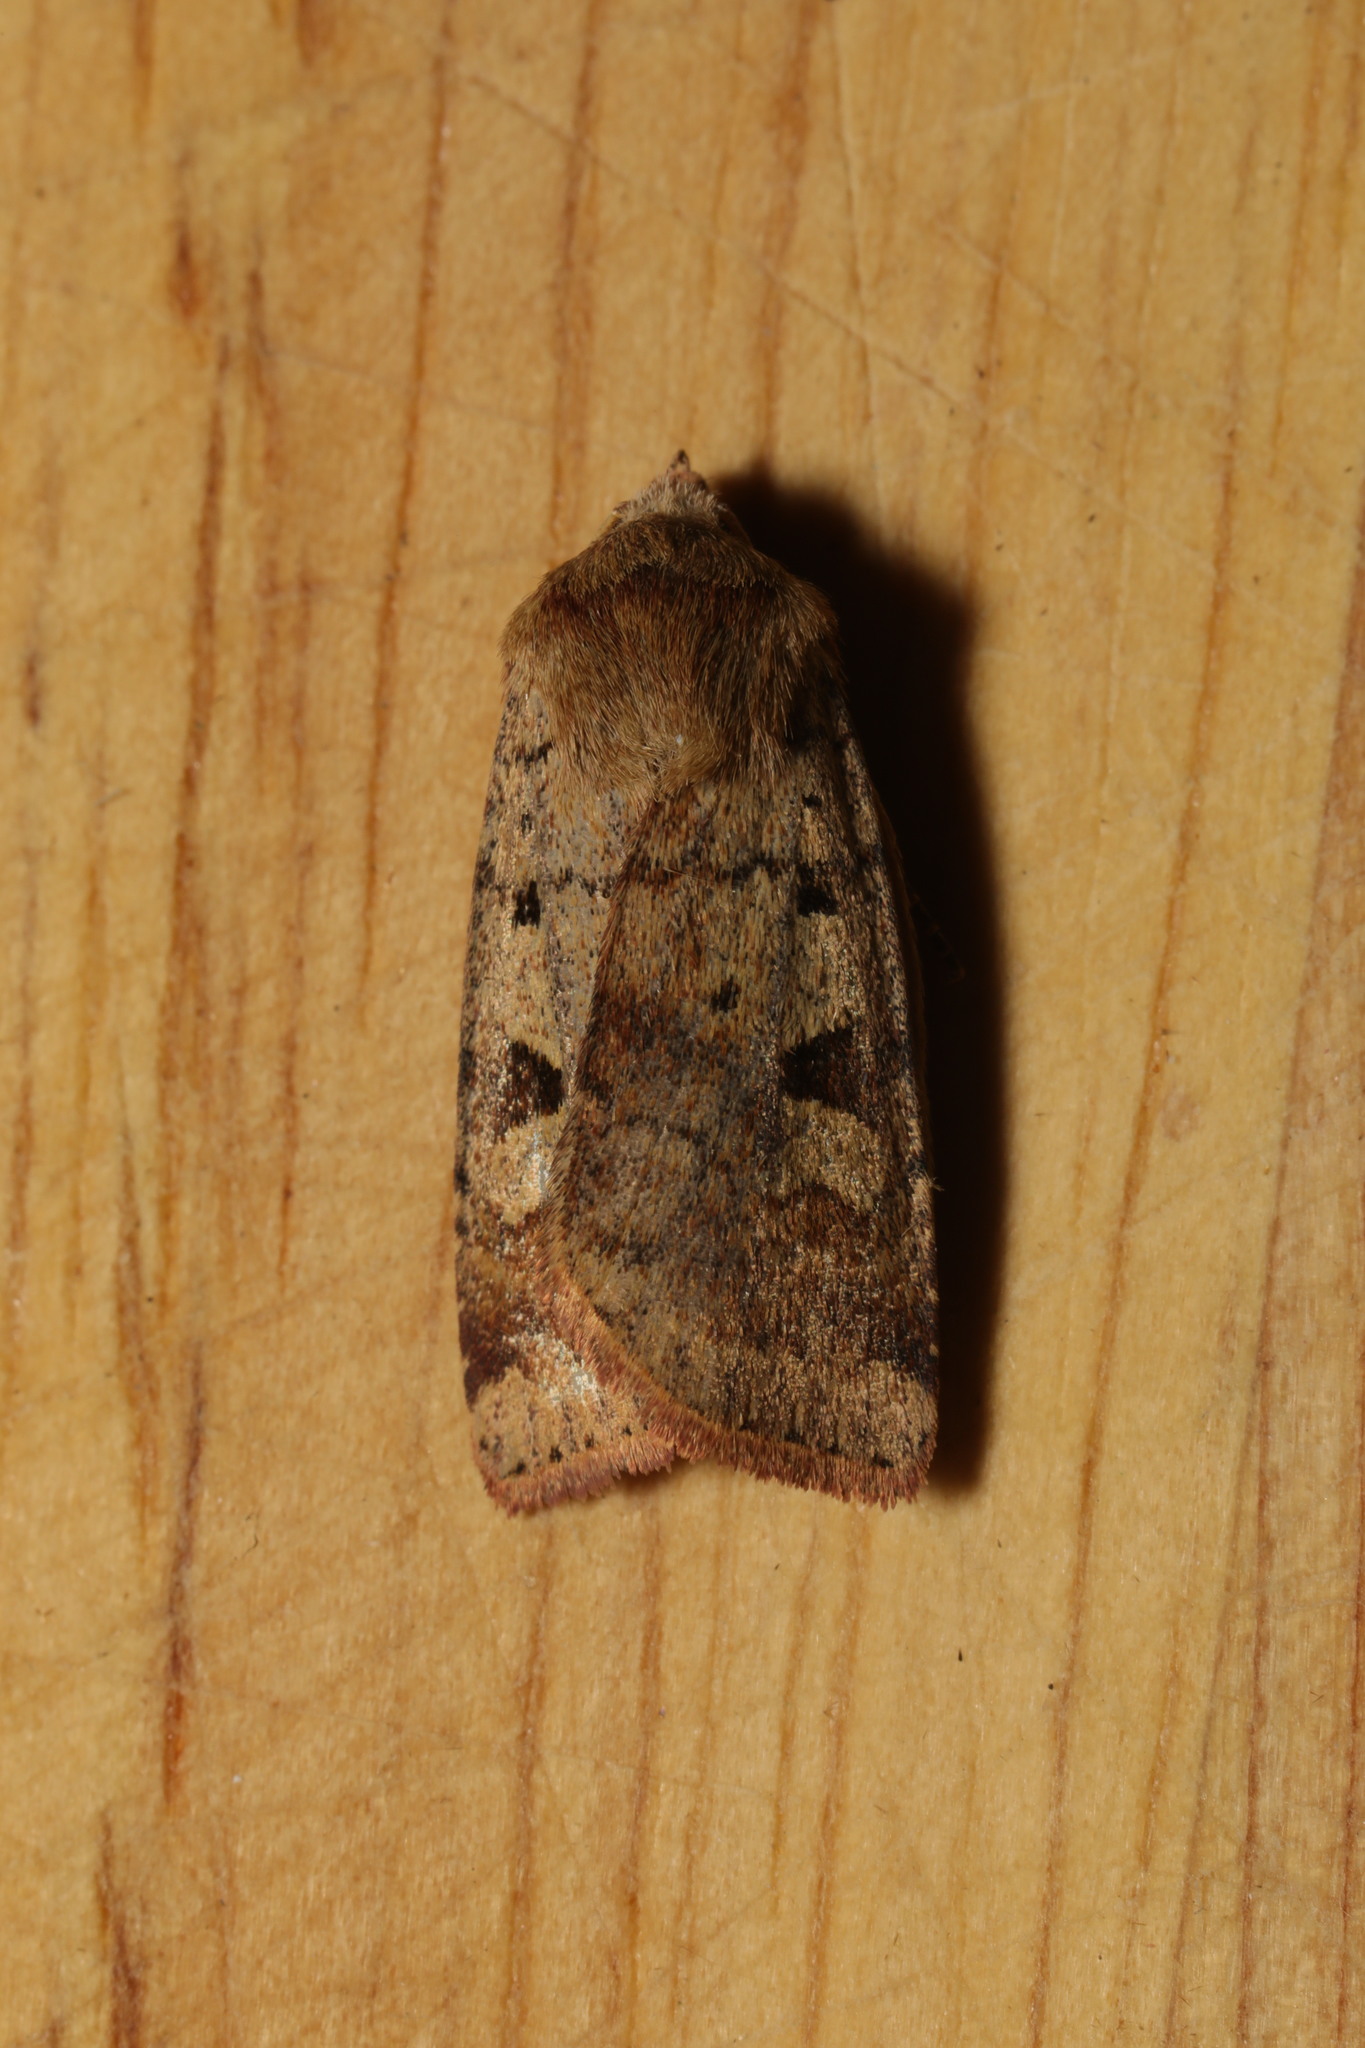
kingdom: Animalia
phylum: Arthropoda
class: Insecta
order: Lepidoptera
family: Noctuidae
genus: Diarsia
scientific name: Diarsia mendica
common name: Ingrailed clay
